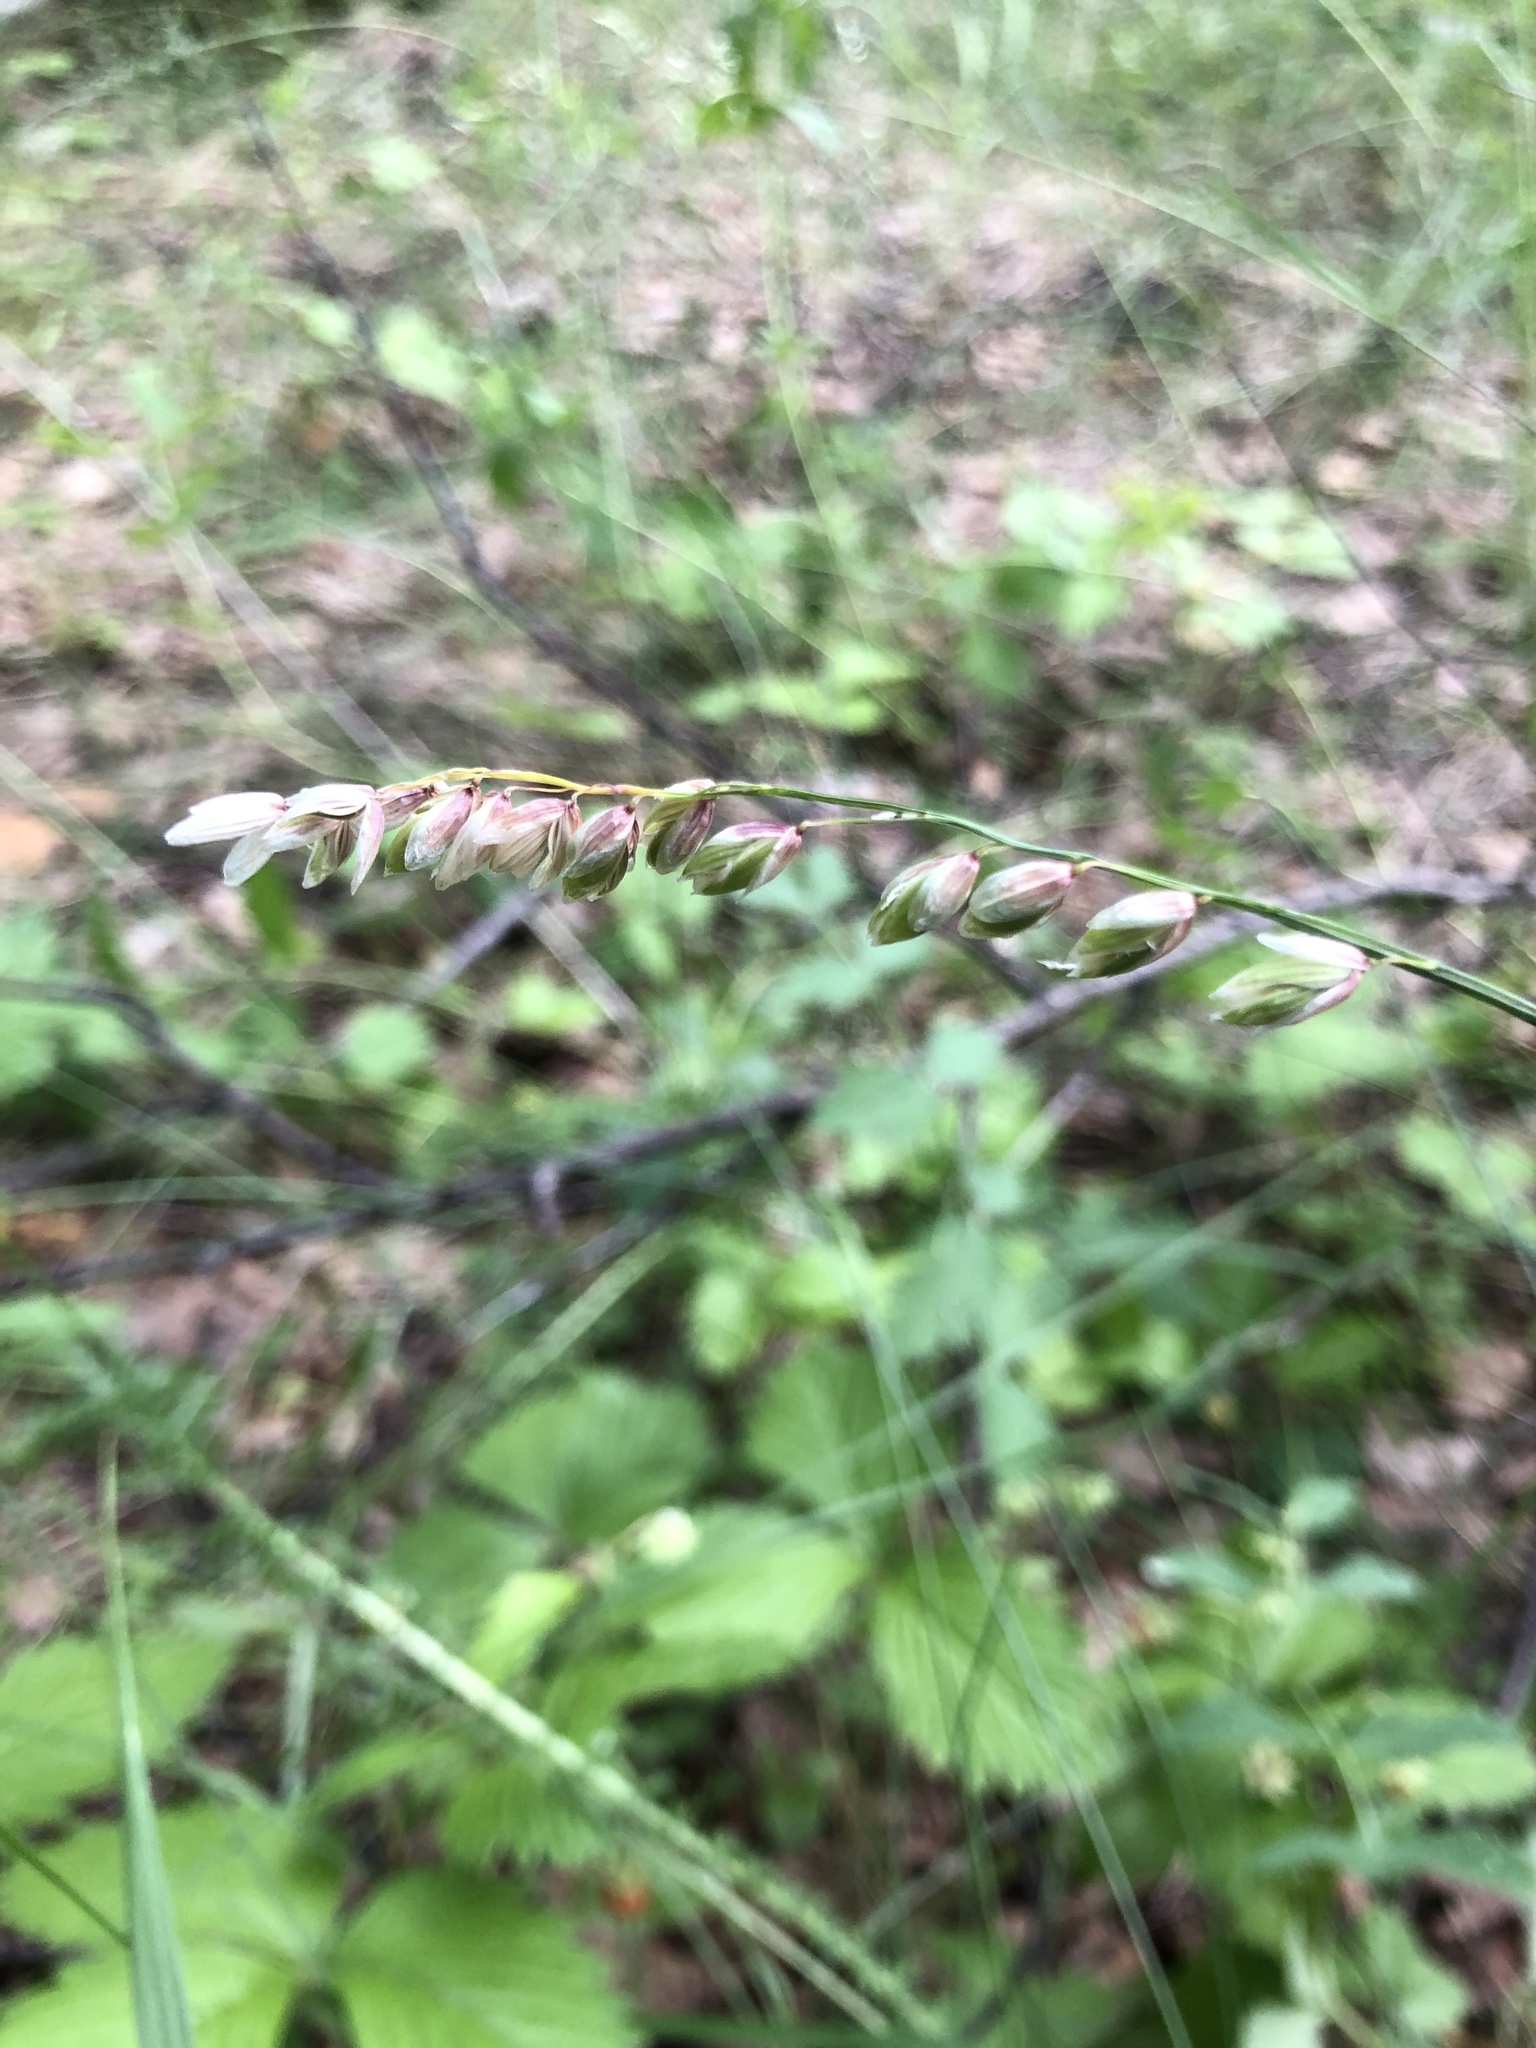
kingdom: Plantae
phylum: Tracheophyta
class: Liliopsida
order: Poales
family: Poaceae
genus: Melica
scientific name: Melica nutans
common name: Mountain melick
